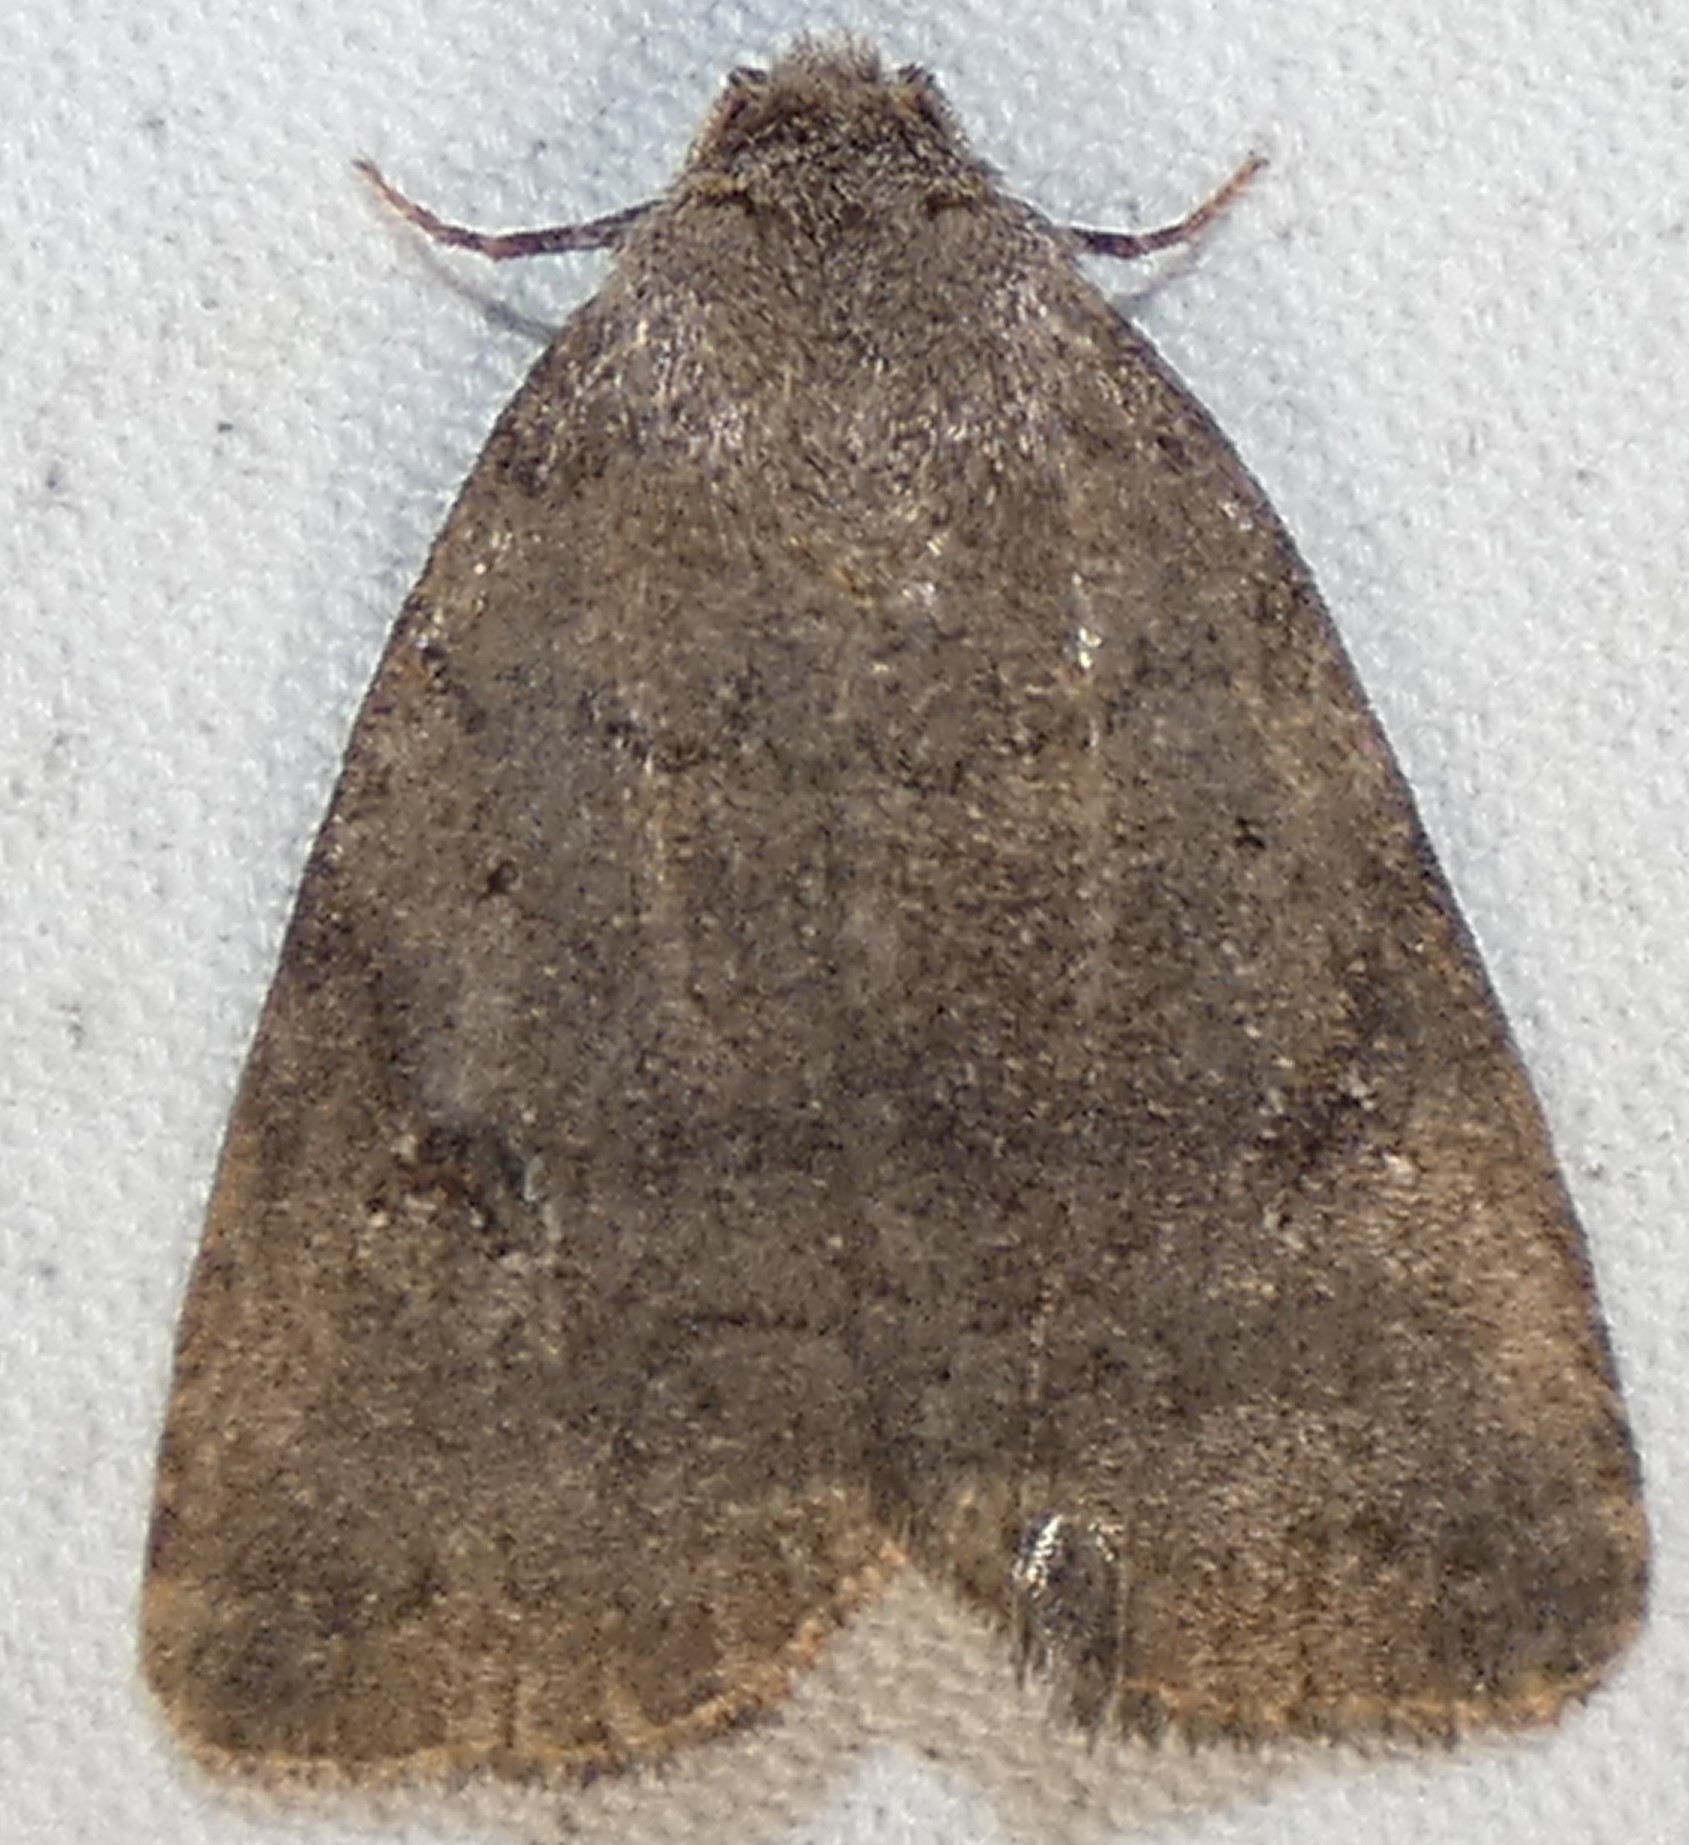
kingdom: Animalia
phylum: Arthropoda
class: Insecta
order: Lepidoptera
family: Noctuidae
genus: Athetis
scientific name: Athetis tarda
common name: Slowpoke moth
